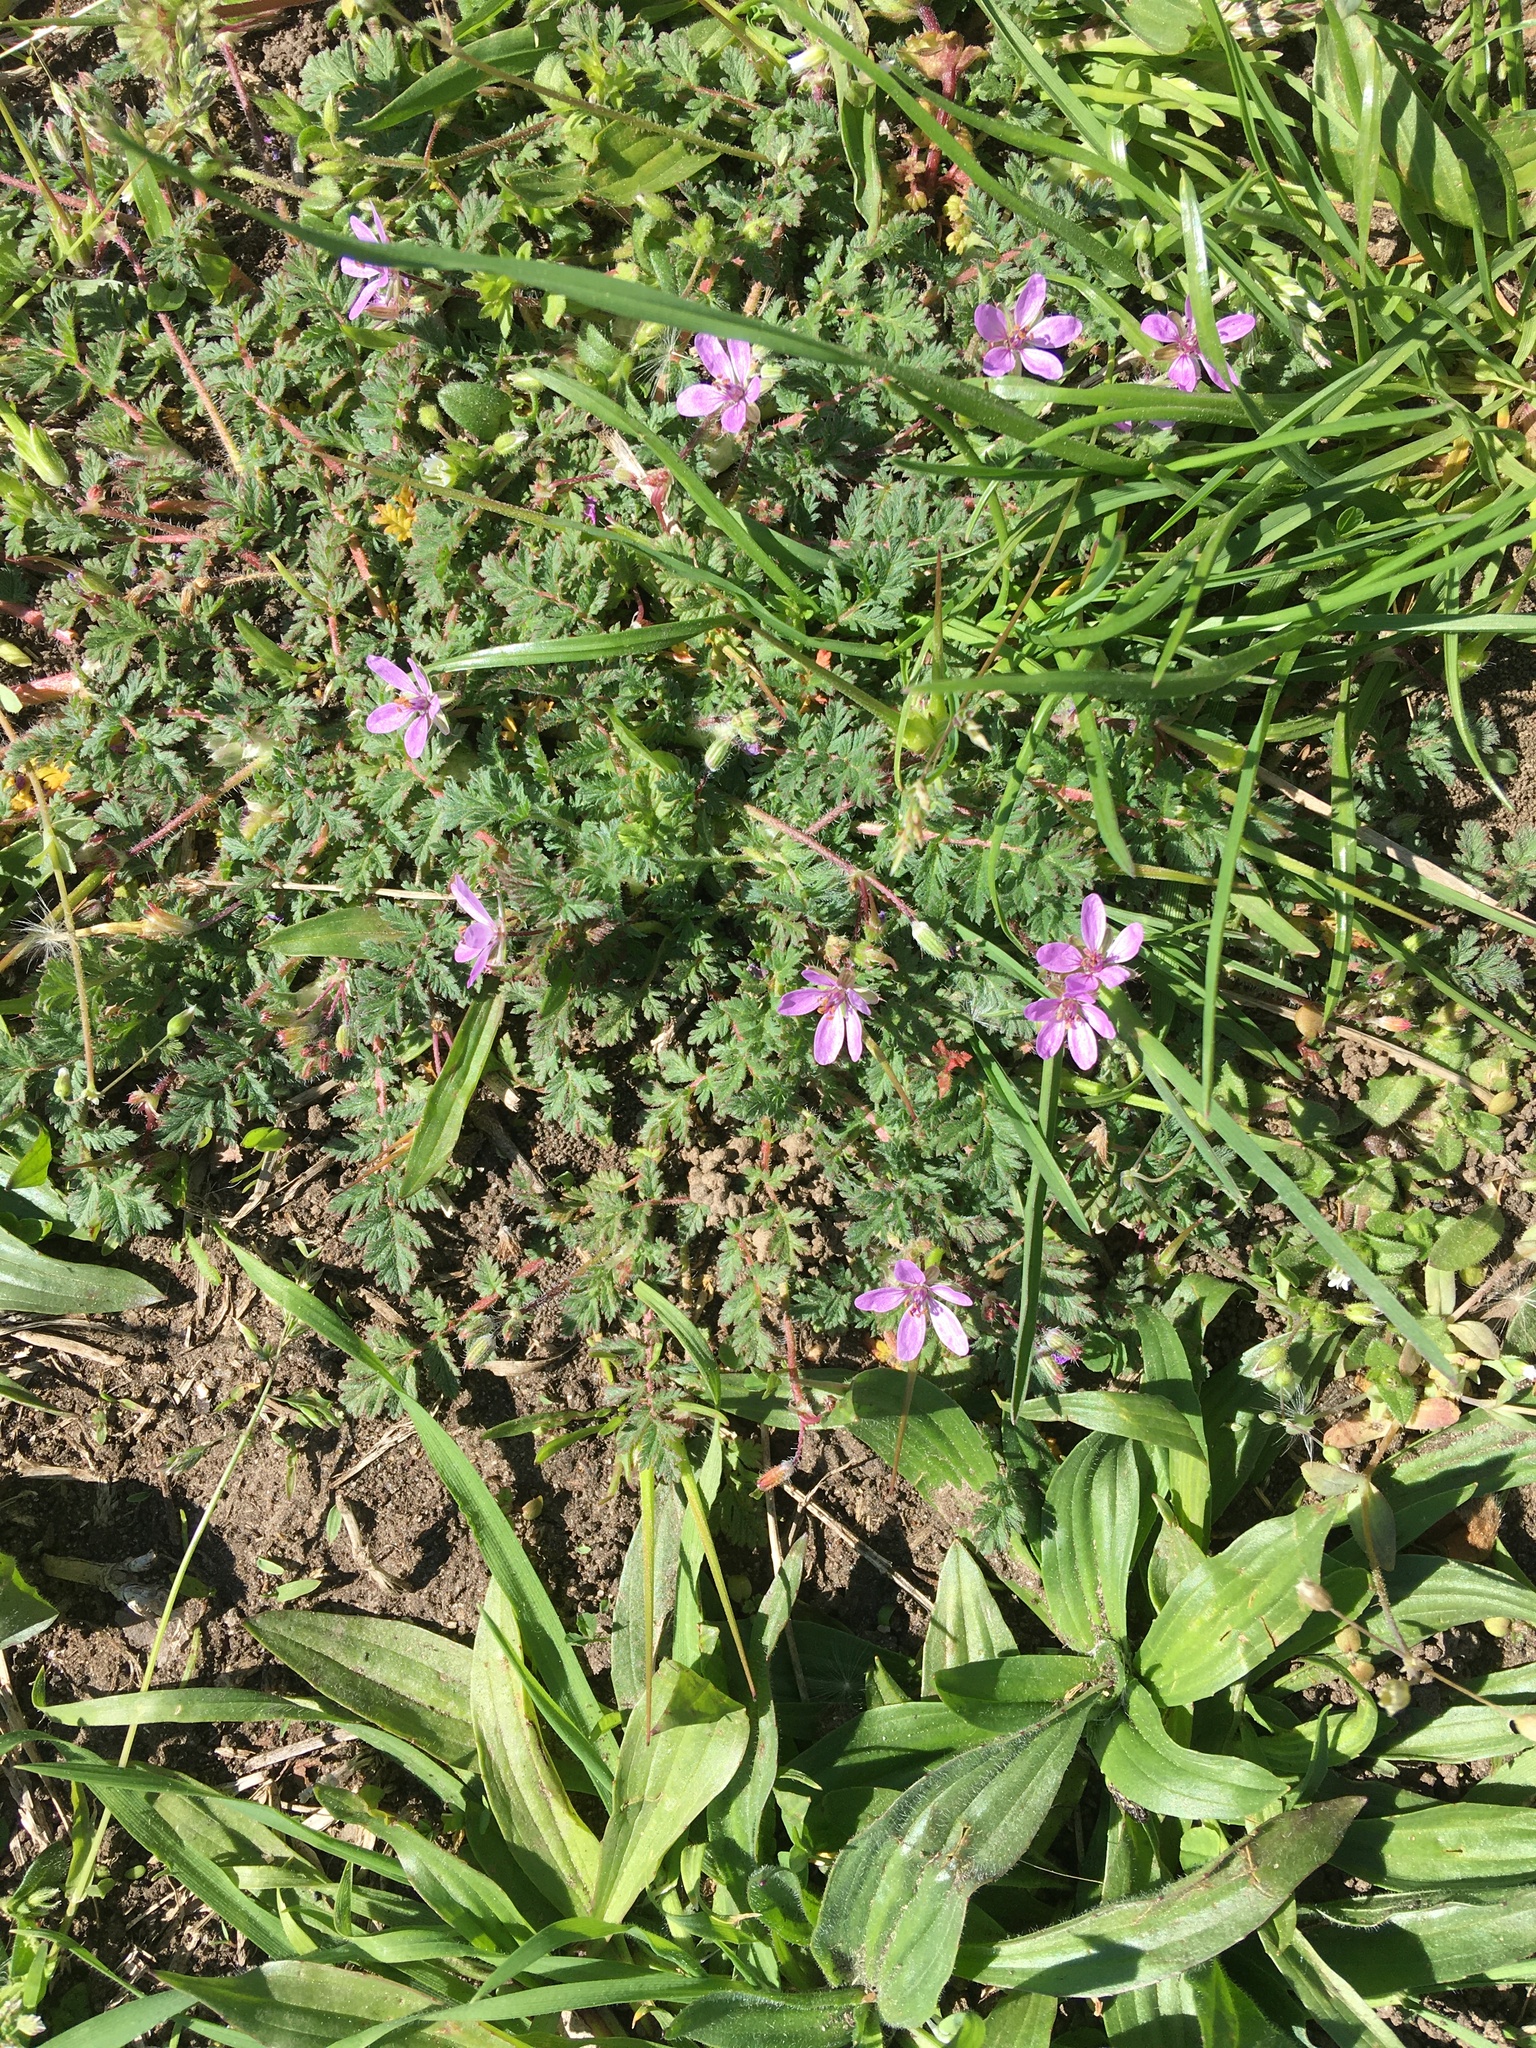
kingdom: Plantae
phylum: Tracheophyta
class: Magnoliopsida
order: Geraniales
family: Geraniaceae
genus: Erodium
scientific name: Erodium cicutarium
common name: Common stork's-bill
